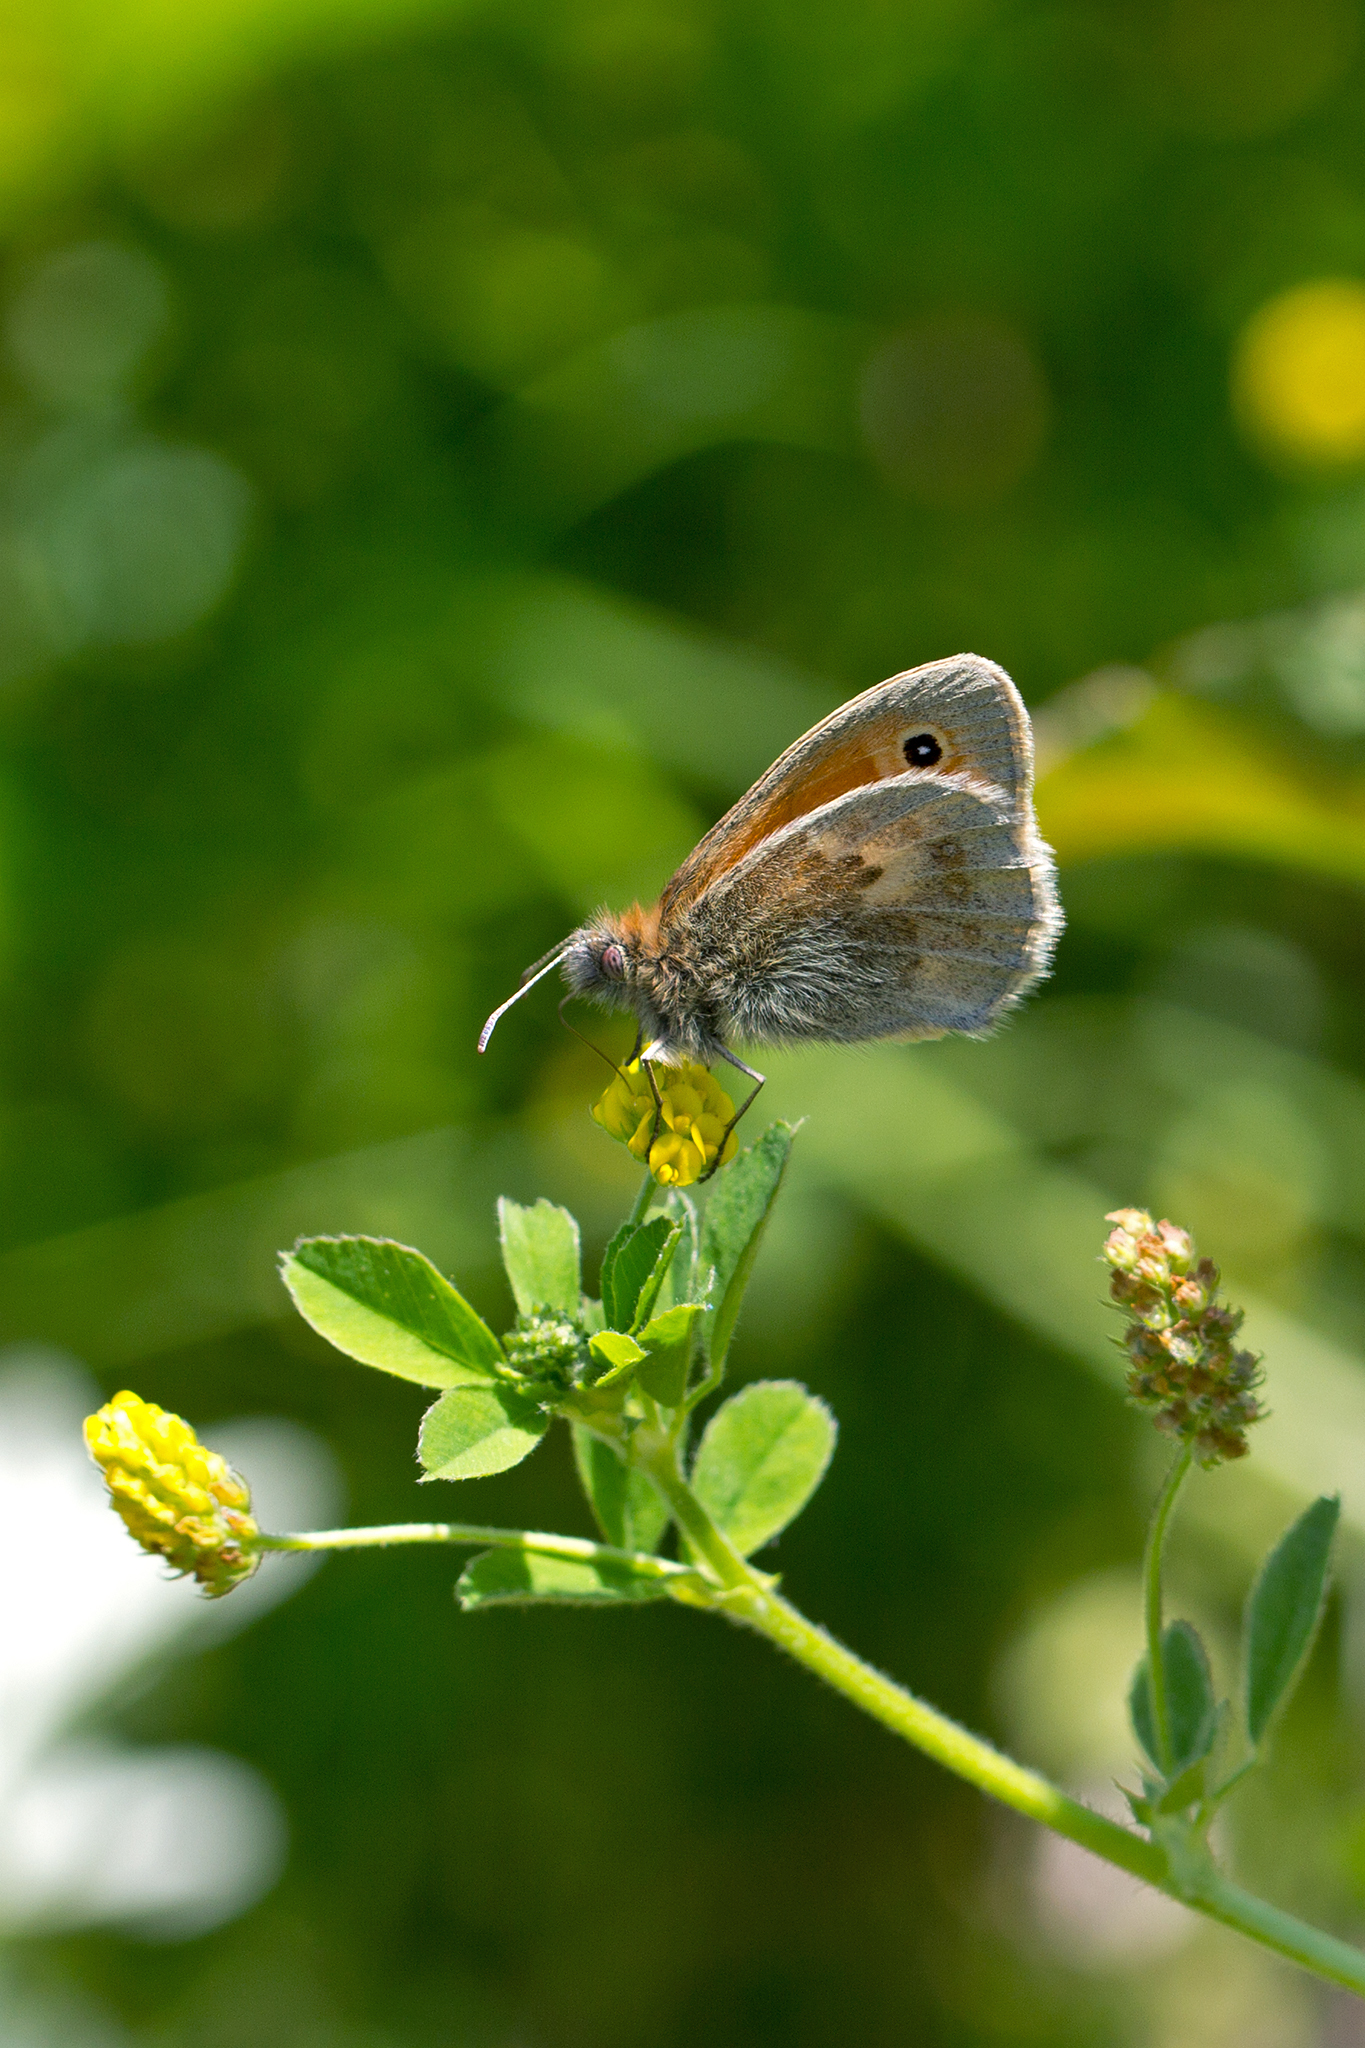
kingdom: Animalia
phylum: Arthropoda
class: Insecta
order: Lepidoptera
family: Nymphalidae
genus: Coenonympha
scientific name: Coenonympha pamphilus
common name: Small heath
